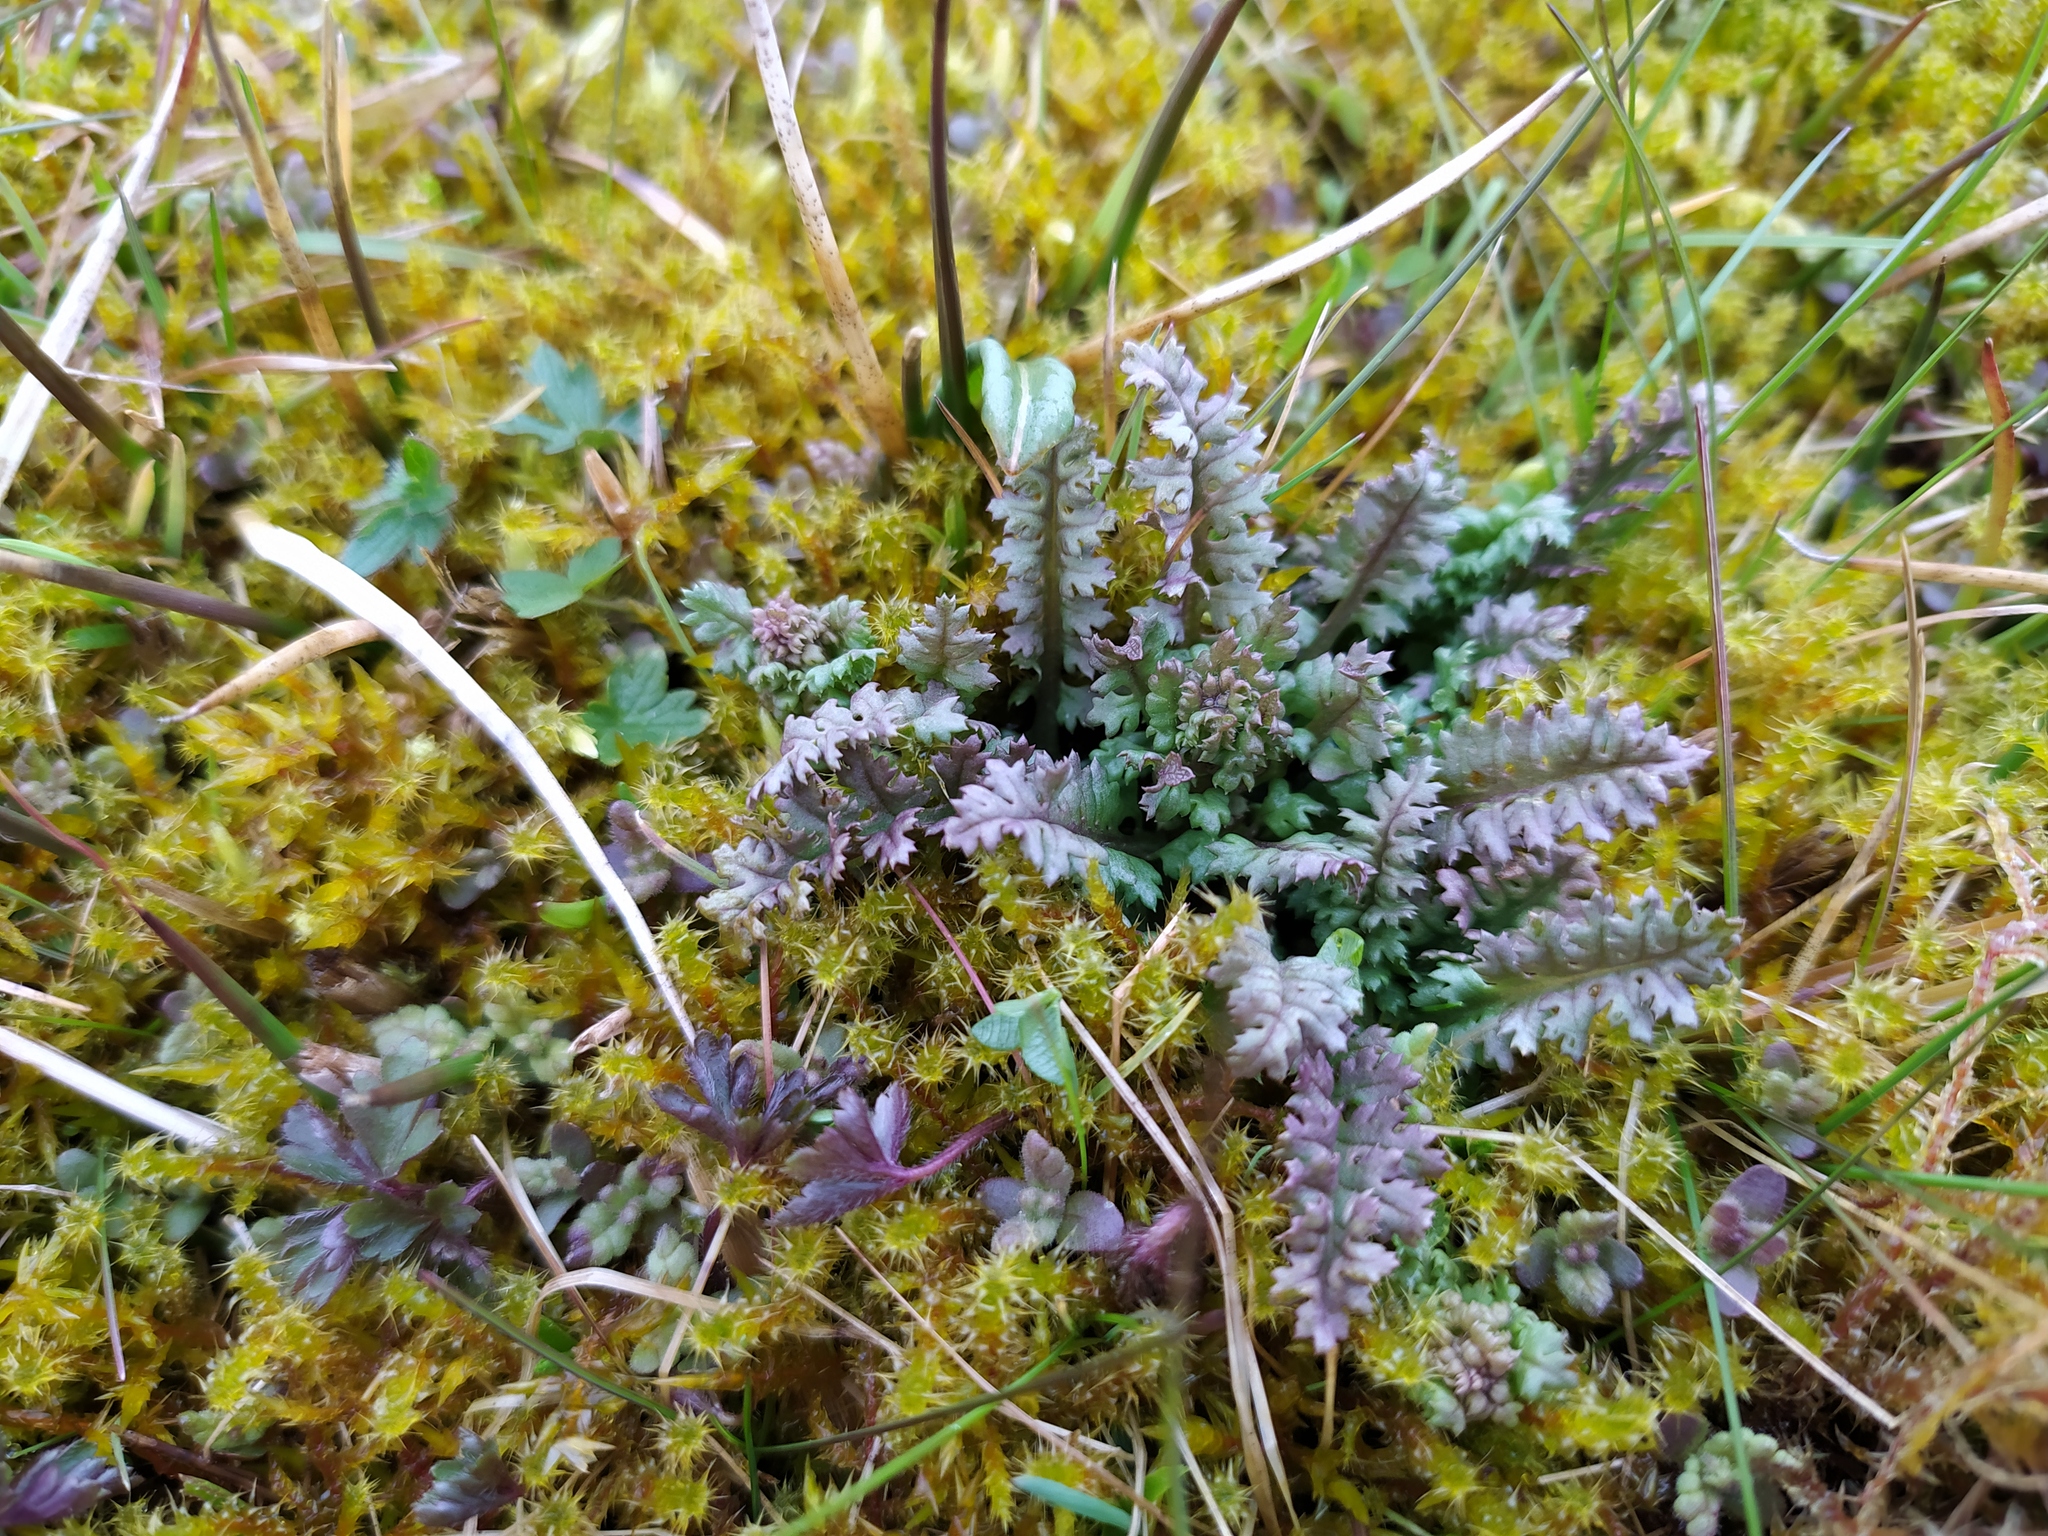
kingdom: Plantae
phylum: Tracheophyta
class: Magnoliopsida
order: Lamiales
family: Orobanchaceae
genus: Pedicularis
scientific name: Pedicularis sylvatica
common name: Lousewort
